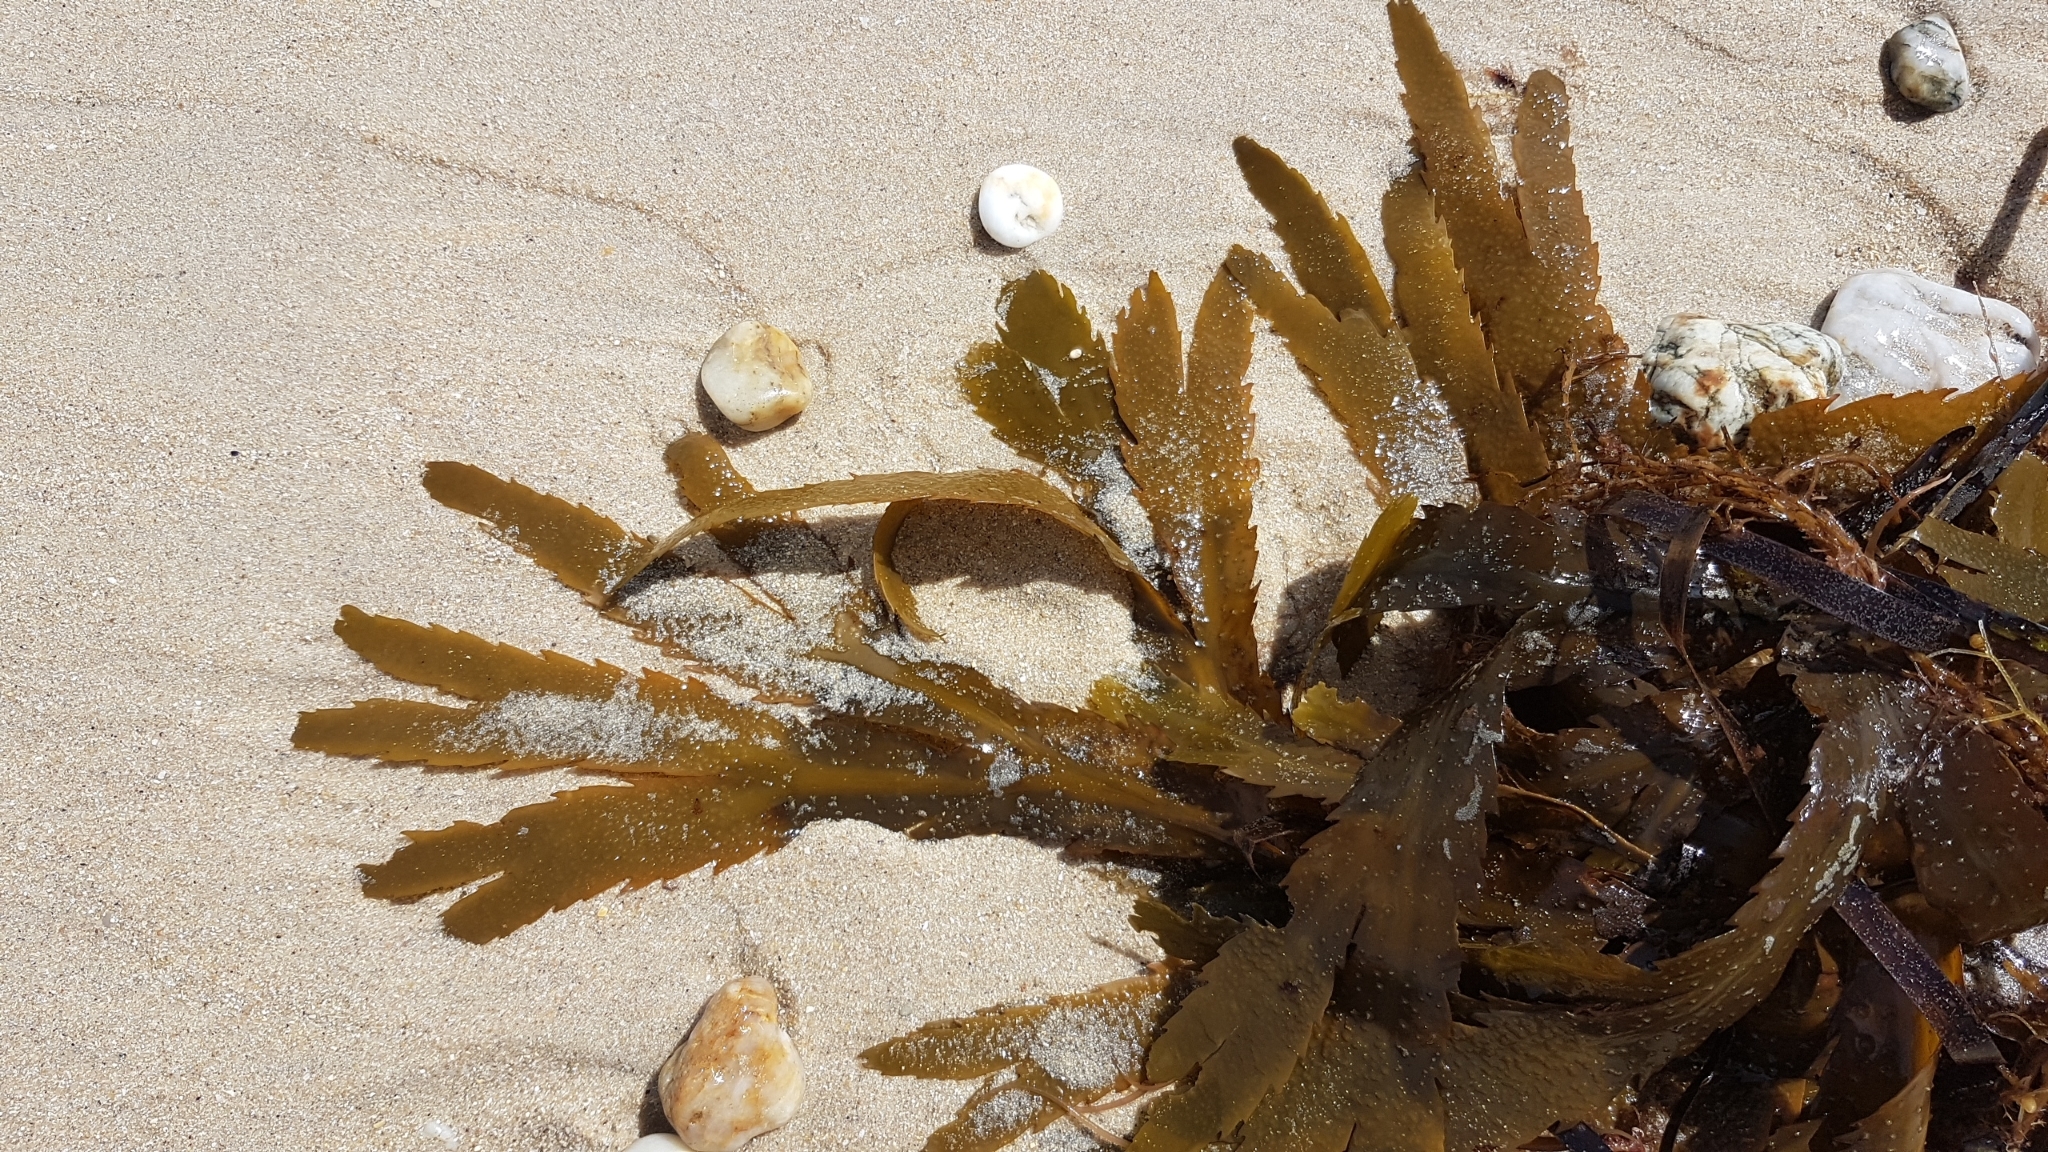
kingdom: Chromista
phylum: Ochrophyta
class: Phaeophyceae
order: Fucales
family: Fucaceae
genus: Fucus
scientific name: Fucus serratus
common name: Toothed wrack
